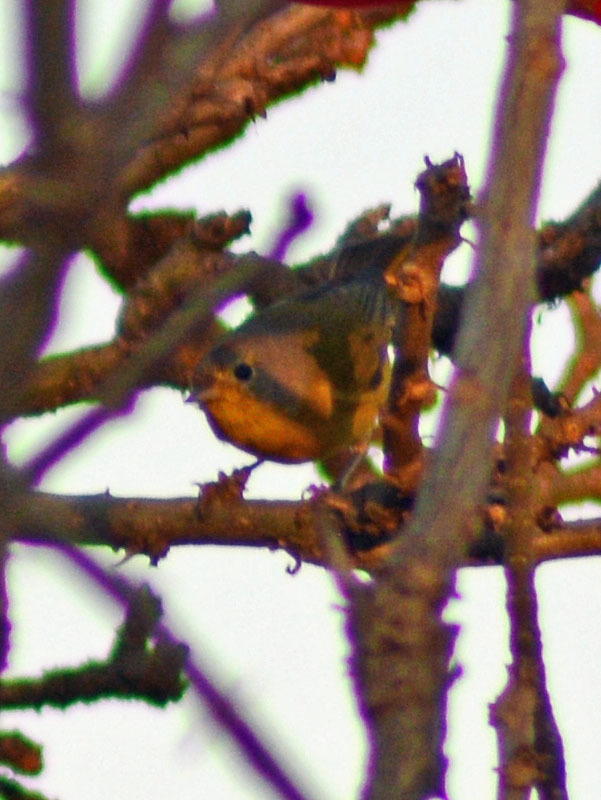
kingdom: Animalia
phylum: Chordata
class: Aves
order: Passeriformes
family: Parulidae
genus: Leiothlypis
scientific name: Leiothlypis ruficapilla
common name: Nashville warbler
